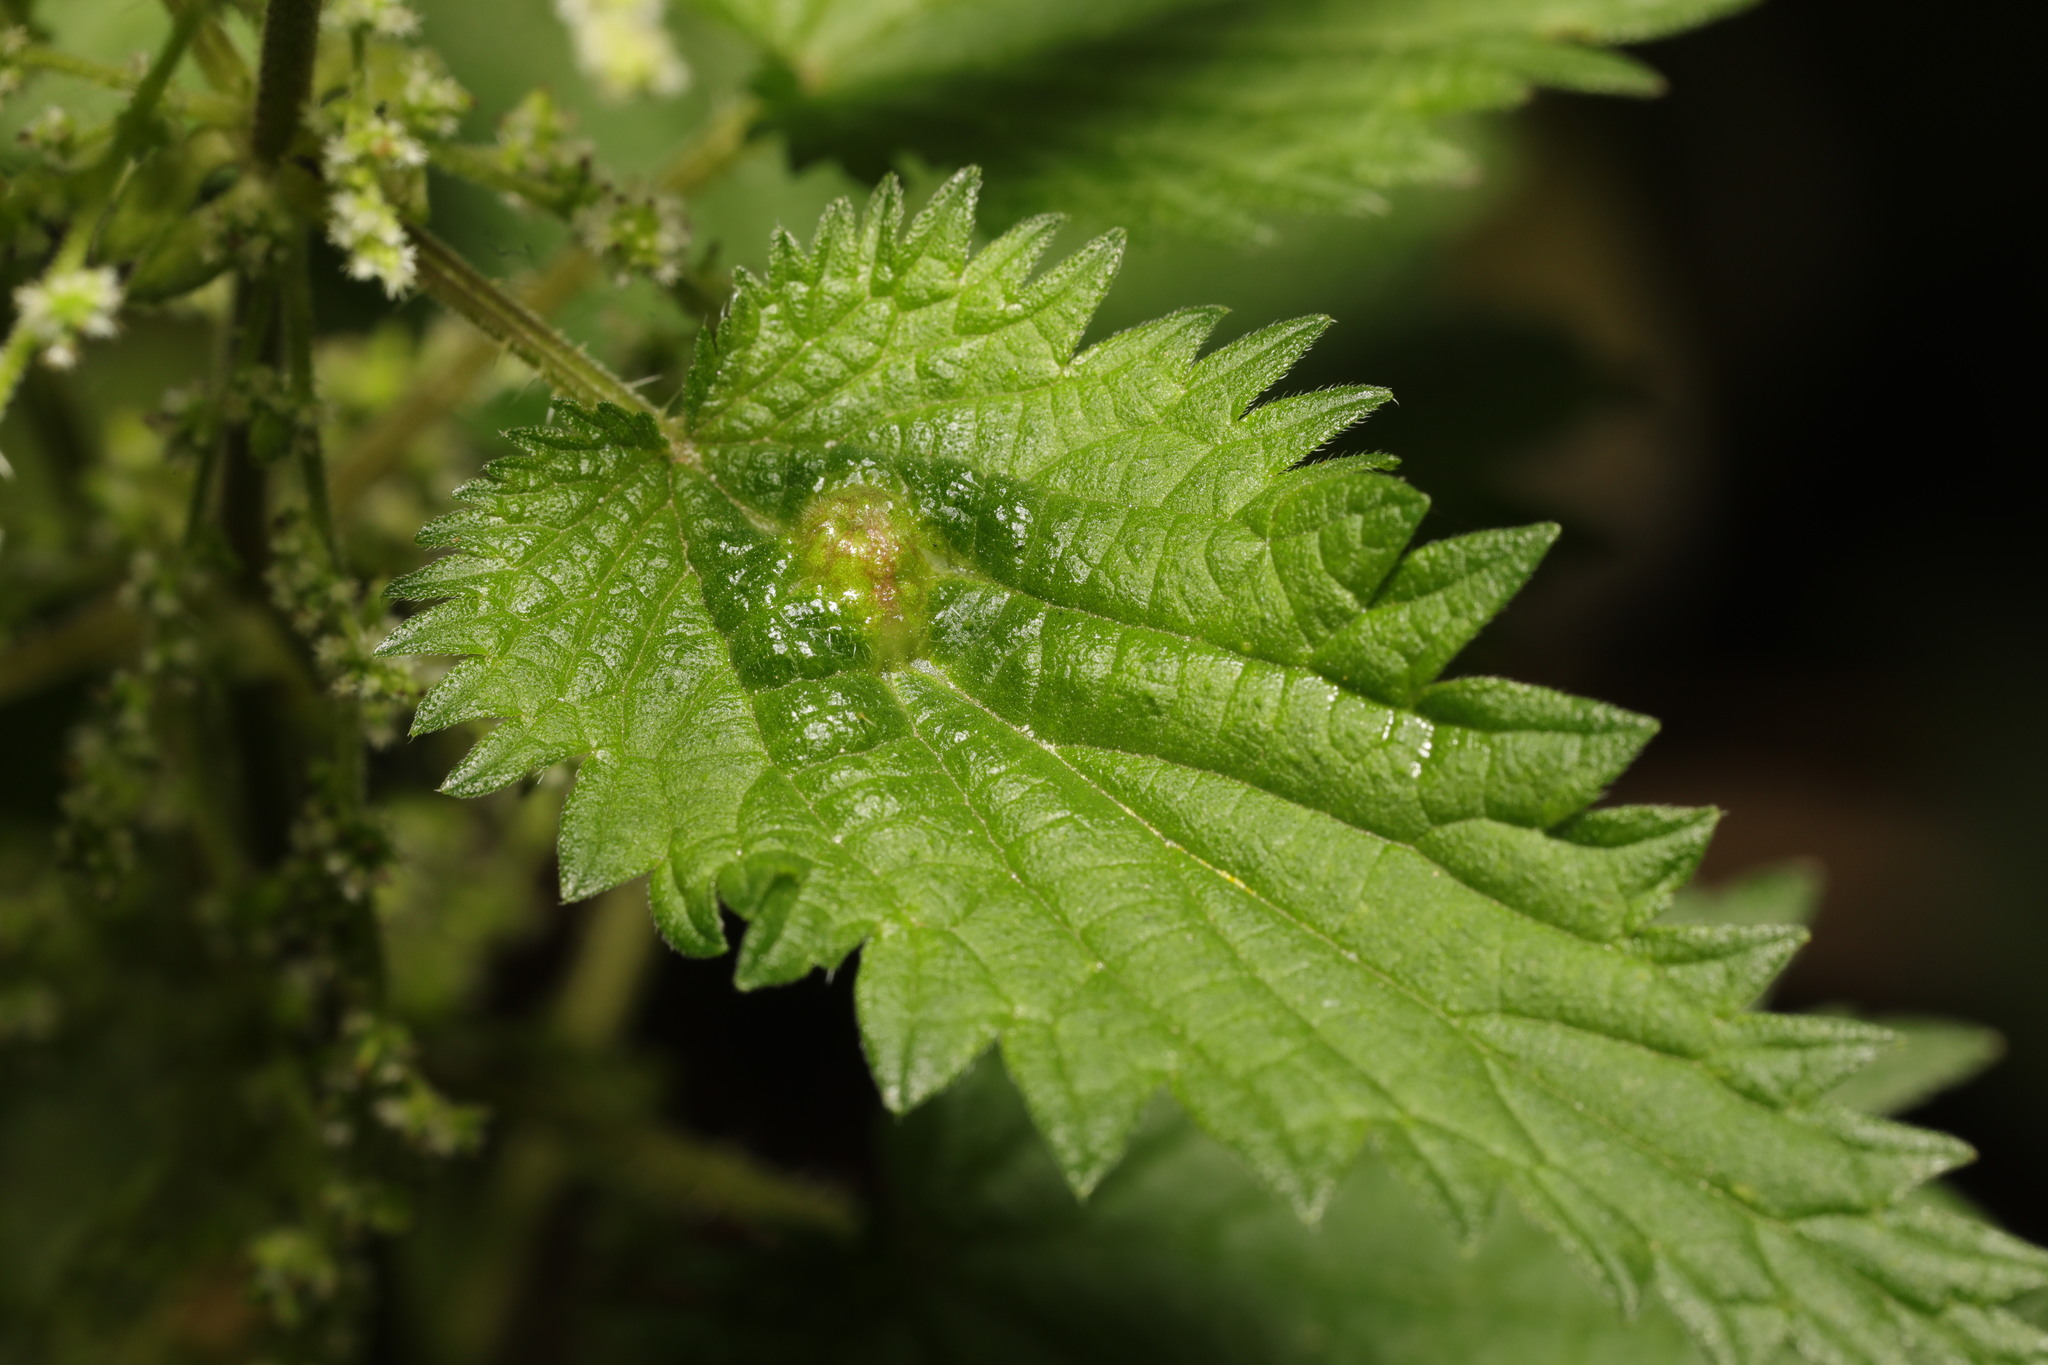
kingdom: Animalia
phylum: Arthropoda
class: Insecta
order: Diptera
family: Cecidomyiidae
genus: Dasineura
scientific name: Dasineura urticae
